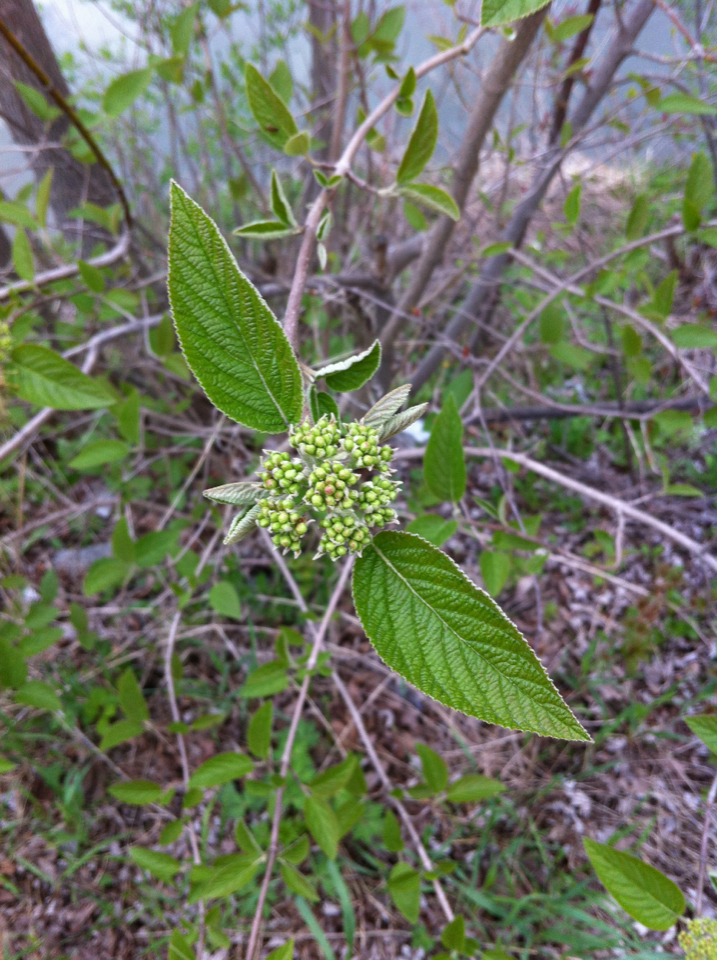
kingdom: Plantae
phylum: Tracheophyta
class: Magnoliopsida
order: Dipsacales
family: Viburnaceae
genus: Viburnum
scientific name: Viburnum lantana
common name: Wayfaring tree
